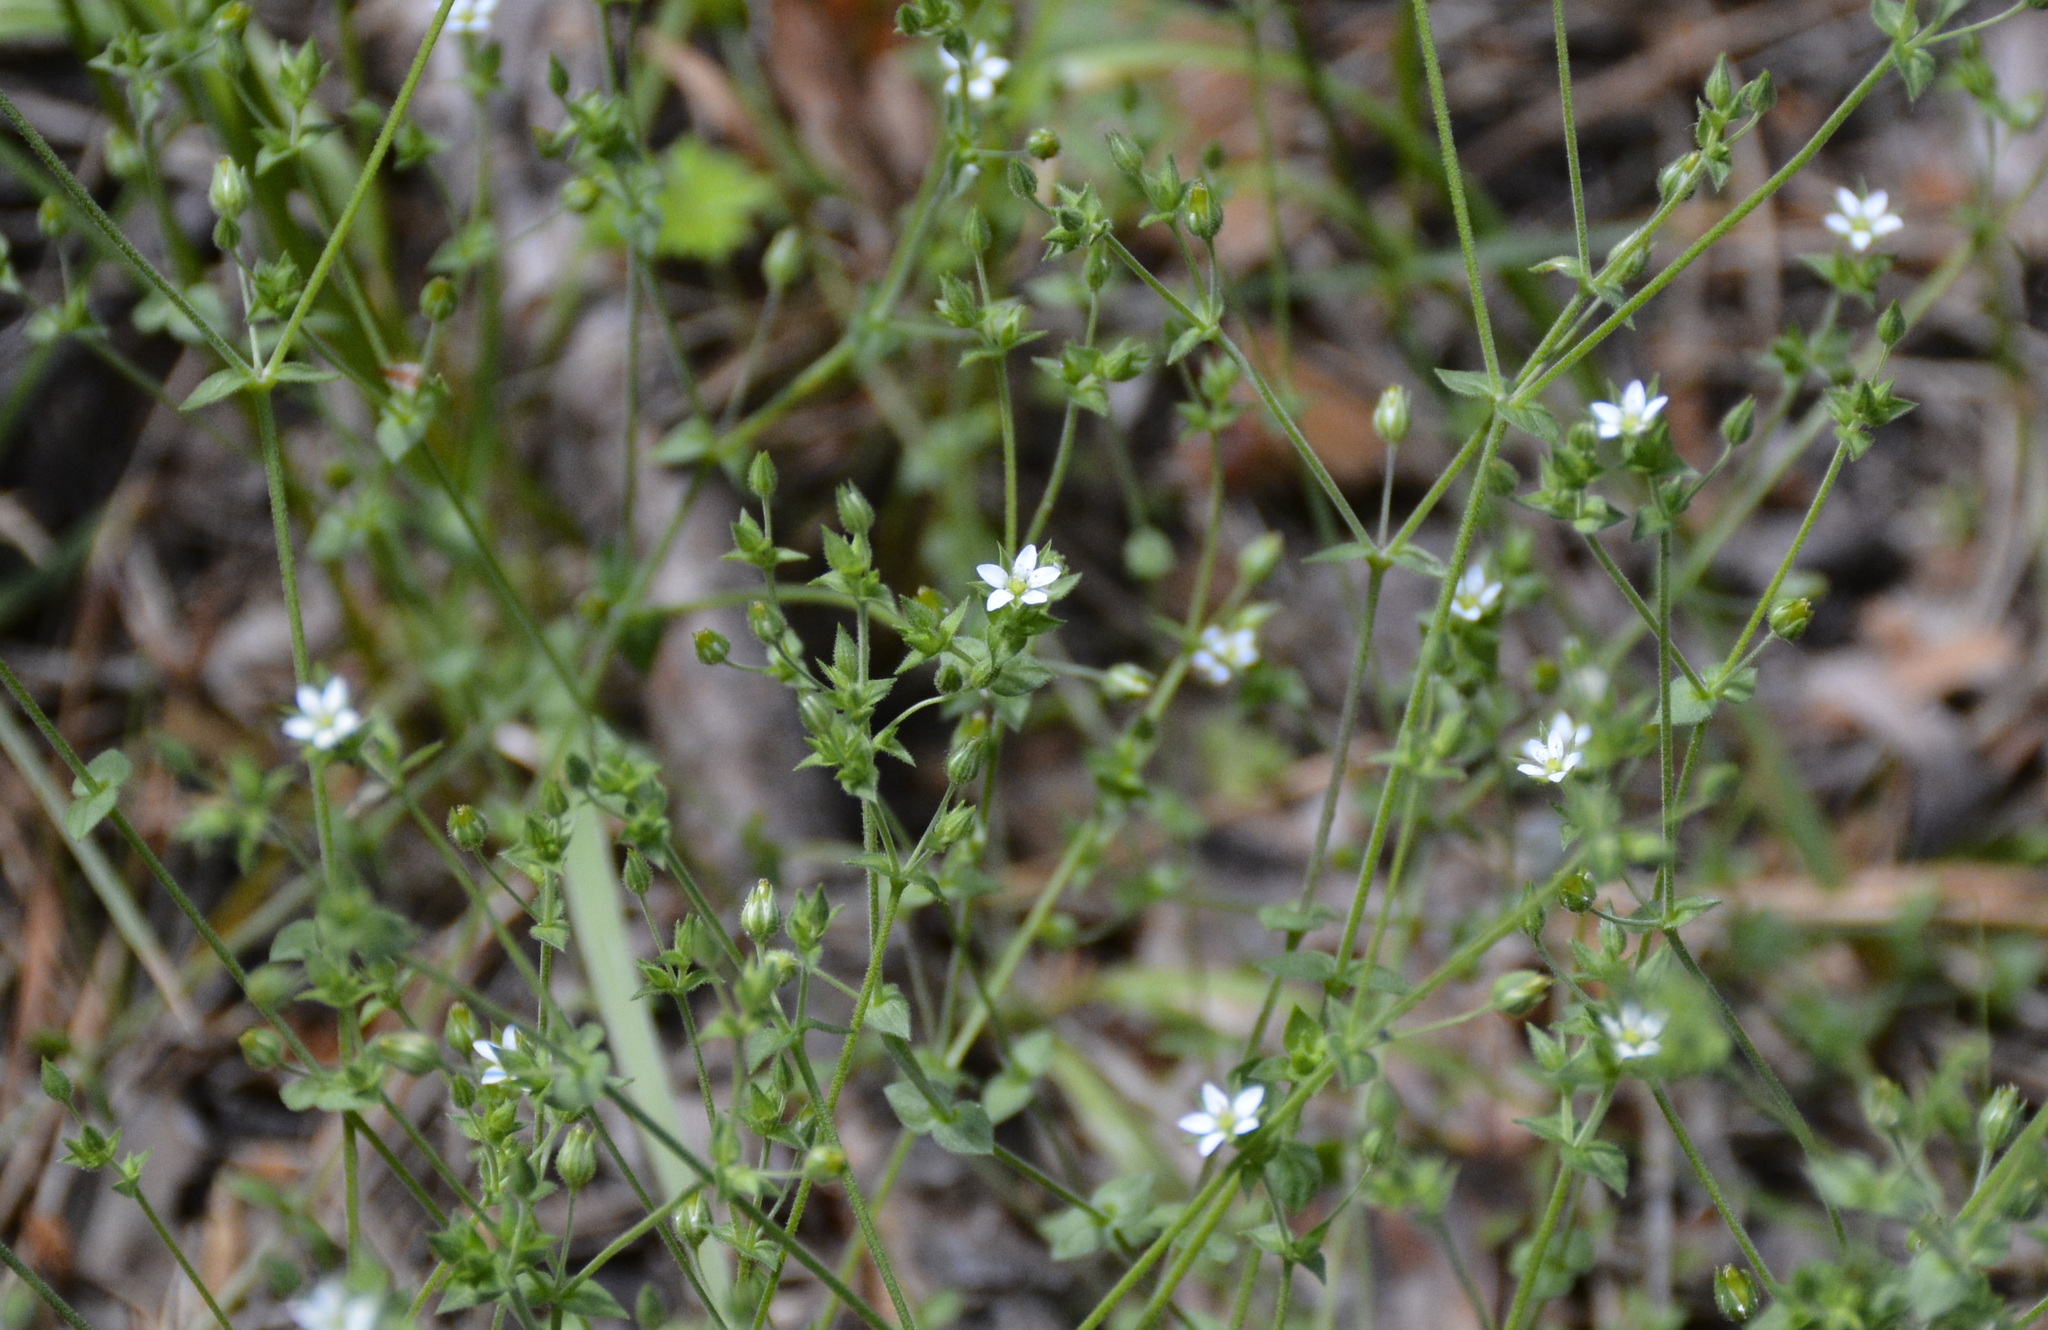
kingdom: Plantae
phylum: Tracheophyta
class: Magnoliopsida
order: Caryophyllales
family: Caryophyllaceae
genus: Arenaria
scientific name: Arenaria serpyllifolia
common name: Thyme-leaved sandwort
